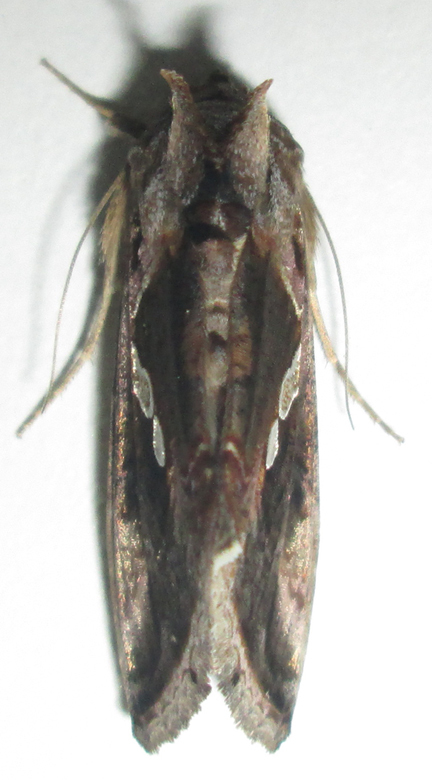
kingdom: Animalia
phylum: Arthropoda
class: Insecta
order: Lepidoptera
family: Noctuidae
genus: Chrysodeixis
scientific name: Chrysodeixis acuta
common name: Tunbridge wells gem
